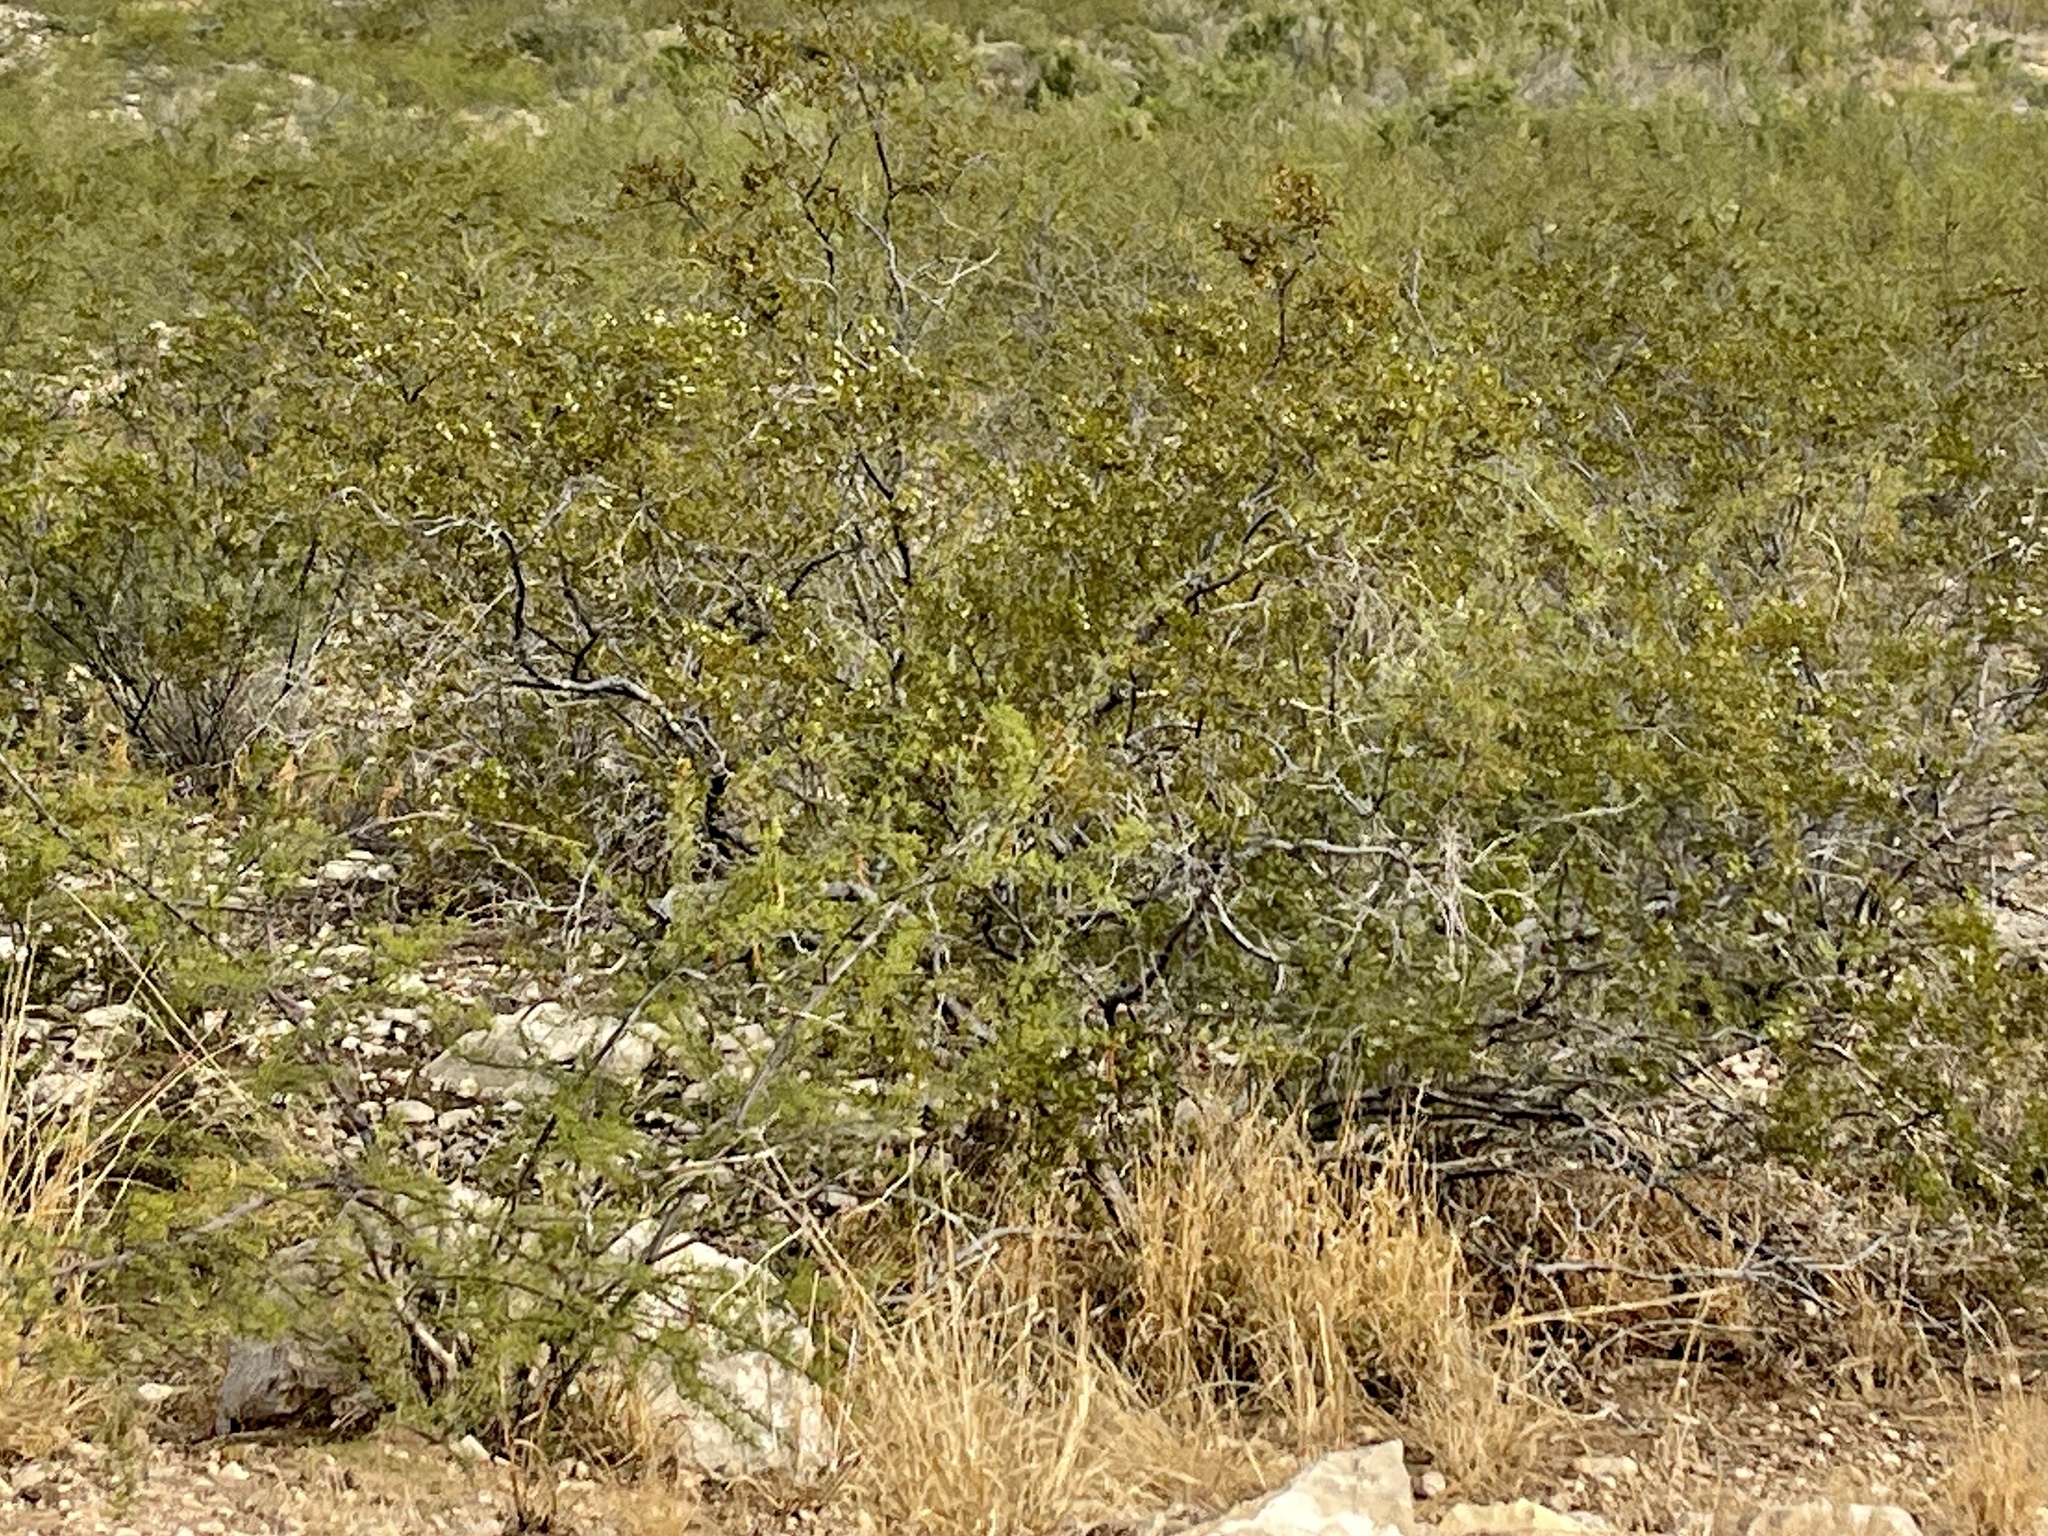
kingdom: Plantae
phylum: Tracheophyta
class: Magnoliopsida
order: Zygophyllales
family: Zygophyllaceae
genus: Larrea
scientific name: Larrea tridentata
